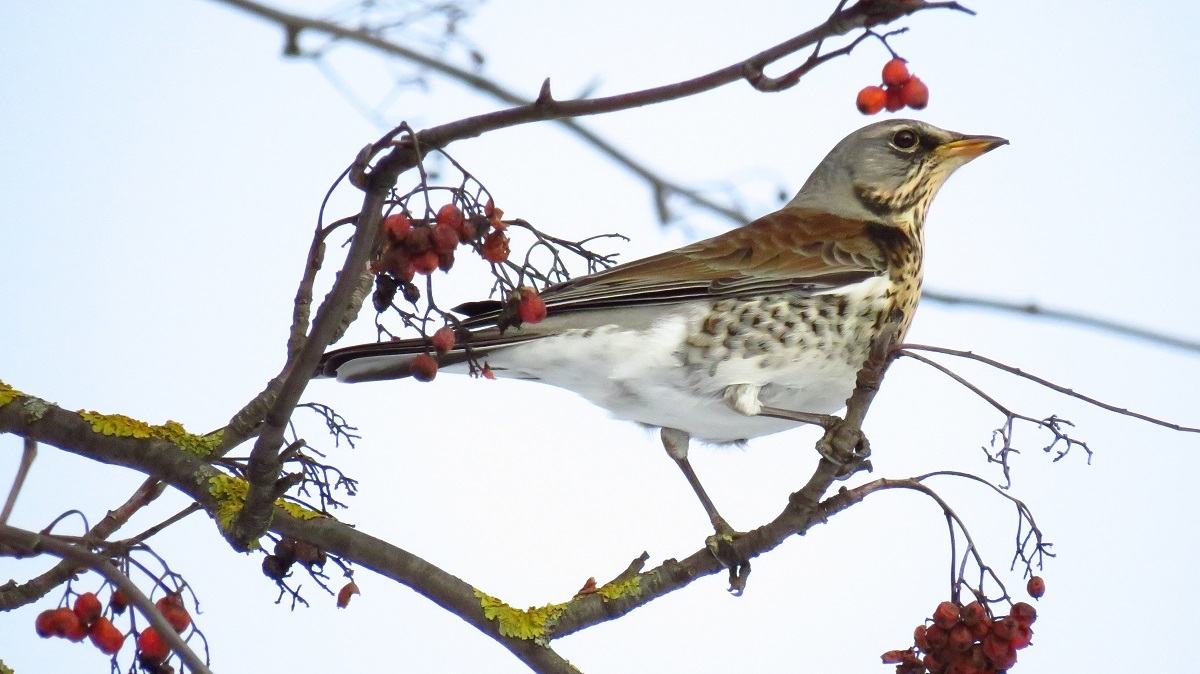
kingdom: Animalia
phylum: Chordata
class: Aves
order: Passeriformes
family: Turdidae
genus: Turdus
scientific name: Turdus pilaris
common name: Fieldfare
